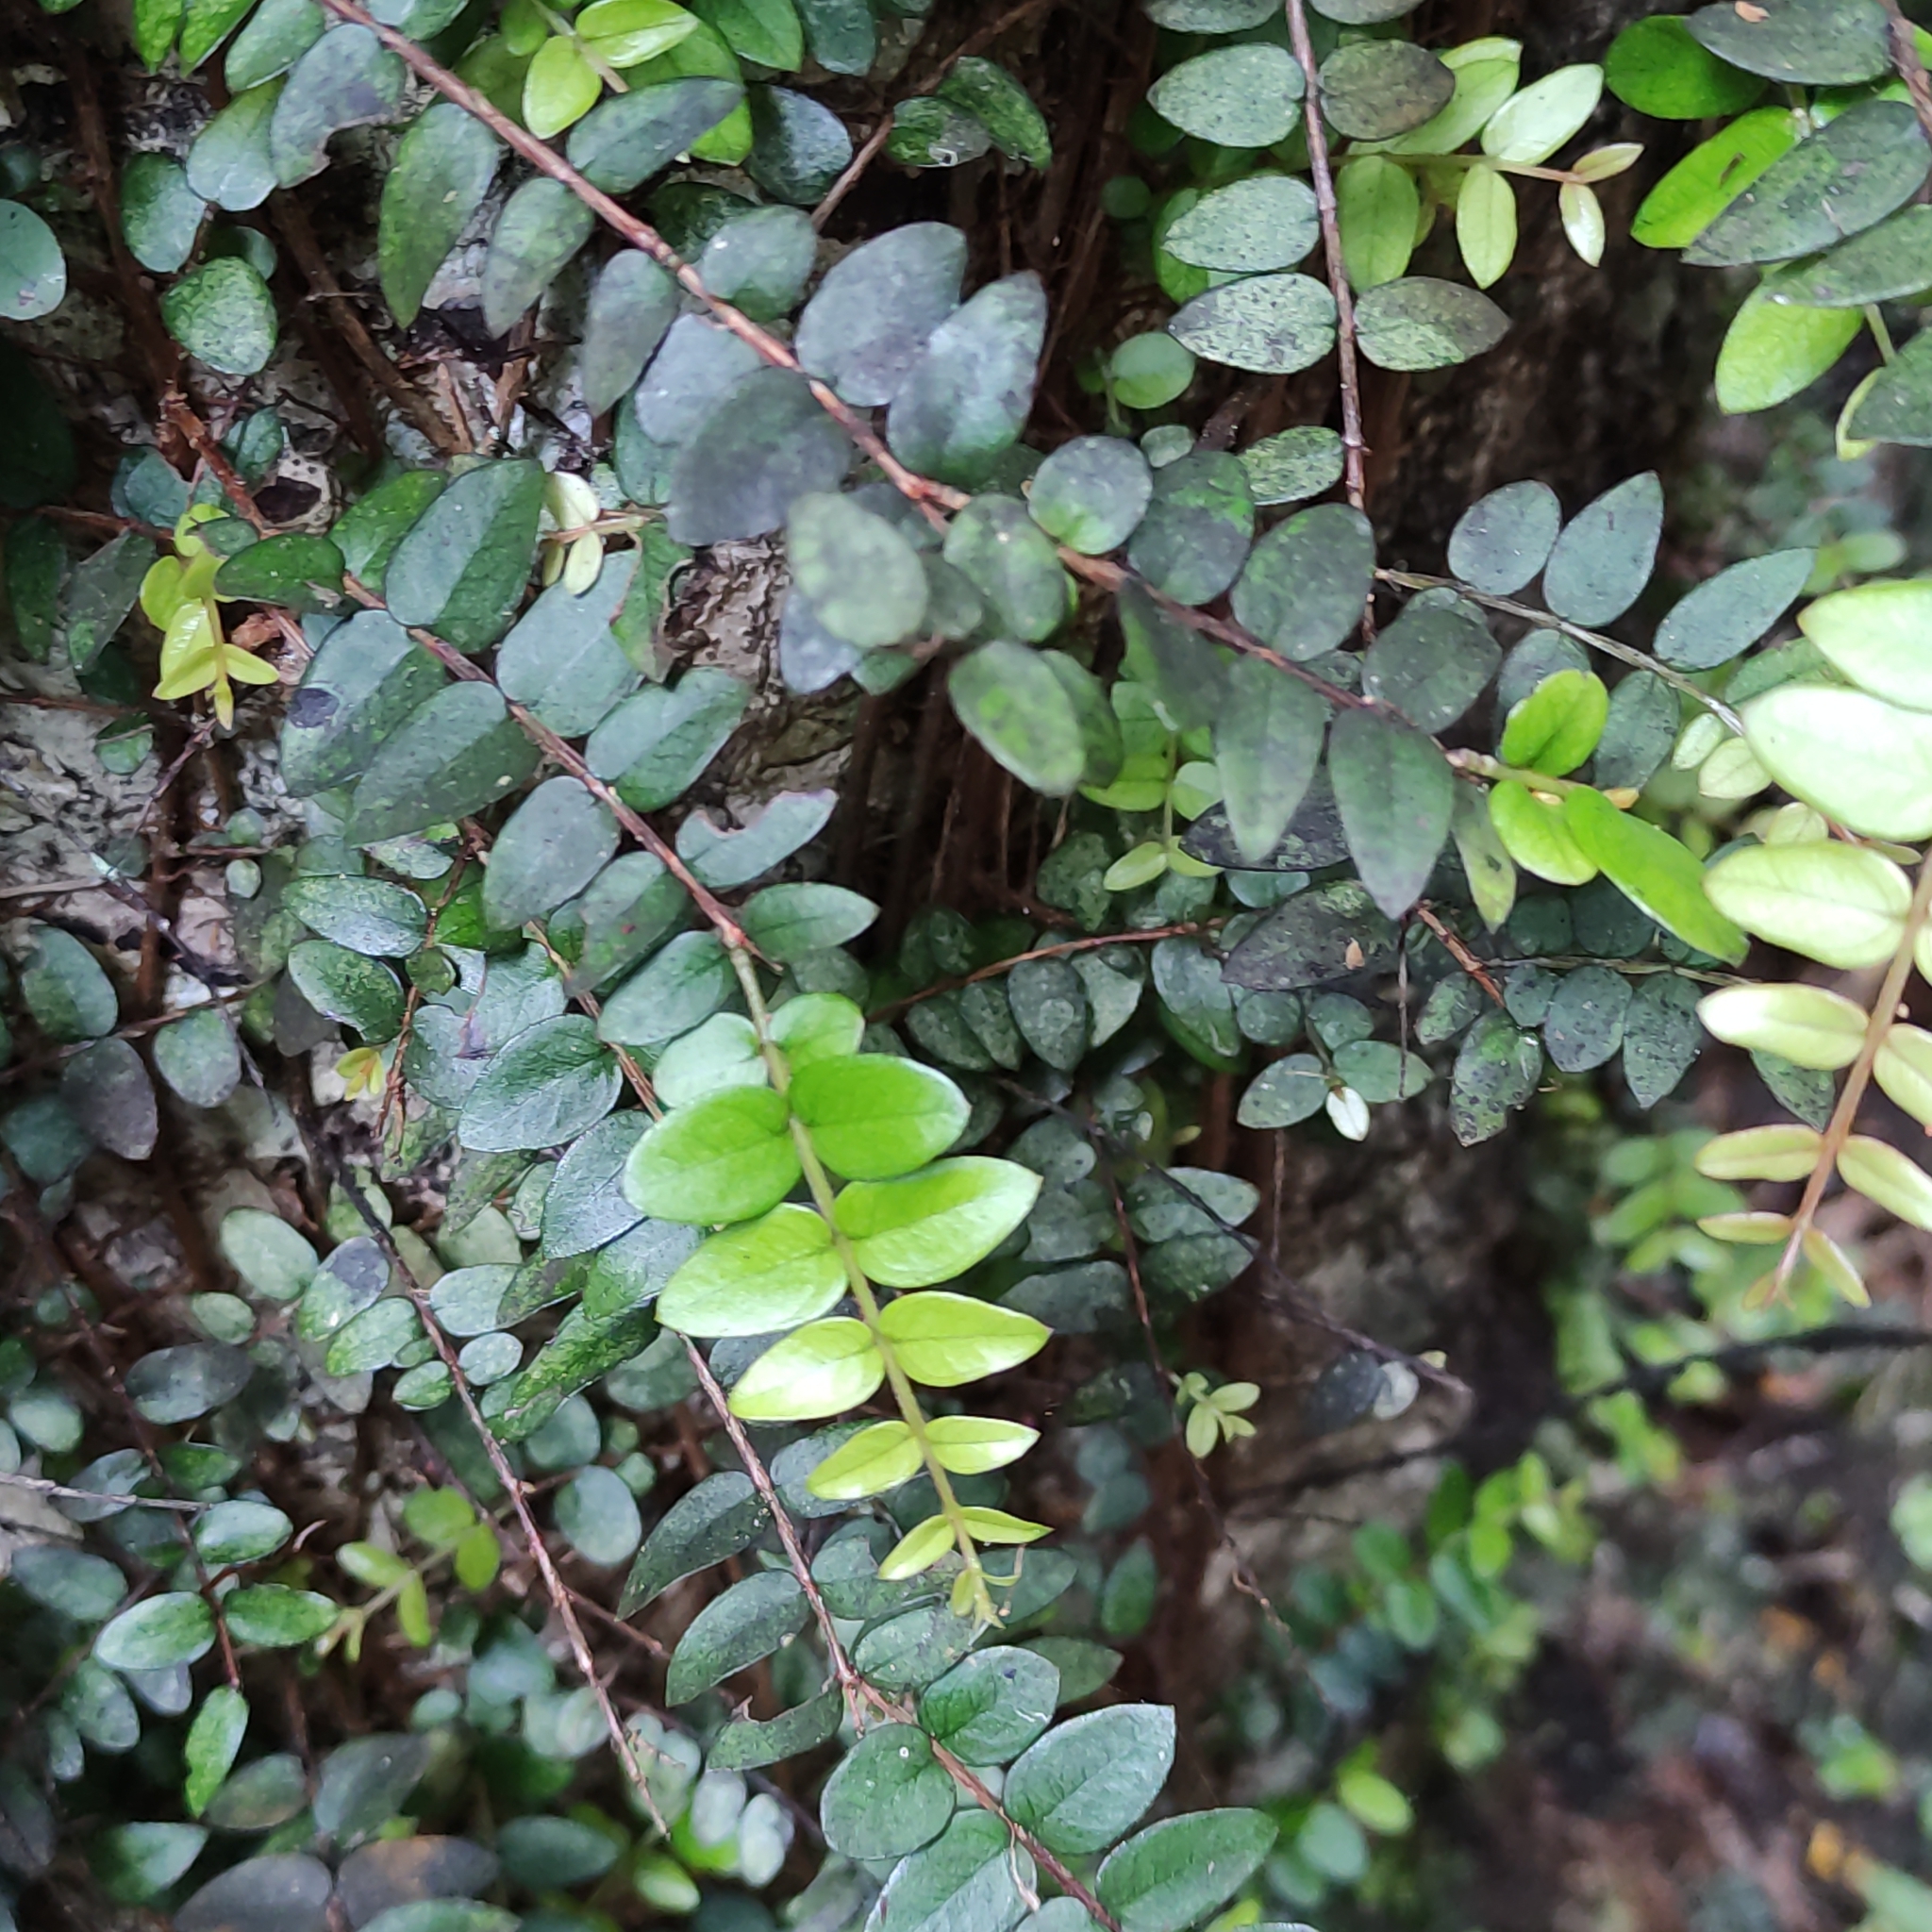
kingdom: Plantae
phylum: Tracheophyta
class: Magnoliopsida
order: Myrtales
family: Myrtaceae
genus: Metrosideros
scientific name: Metrosideros diffusa
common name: Small ratavine
